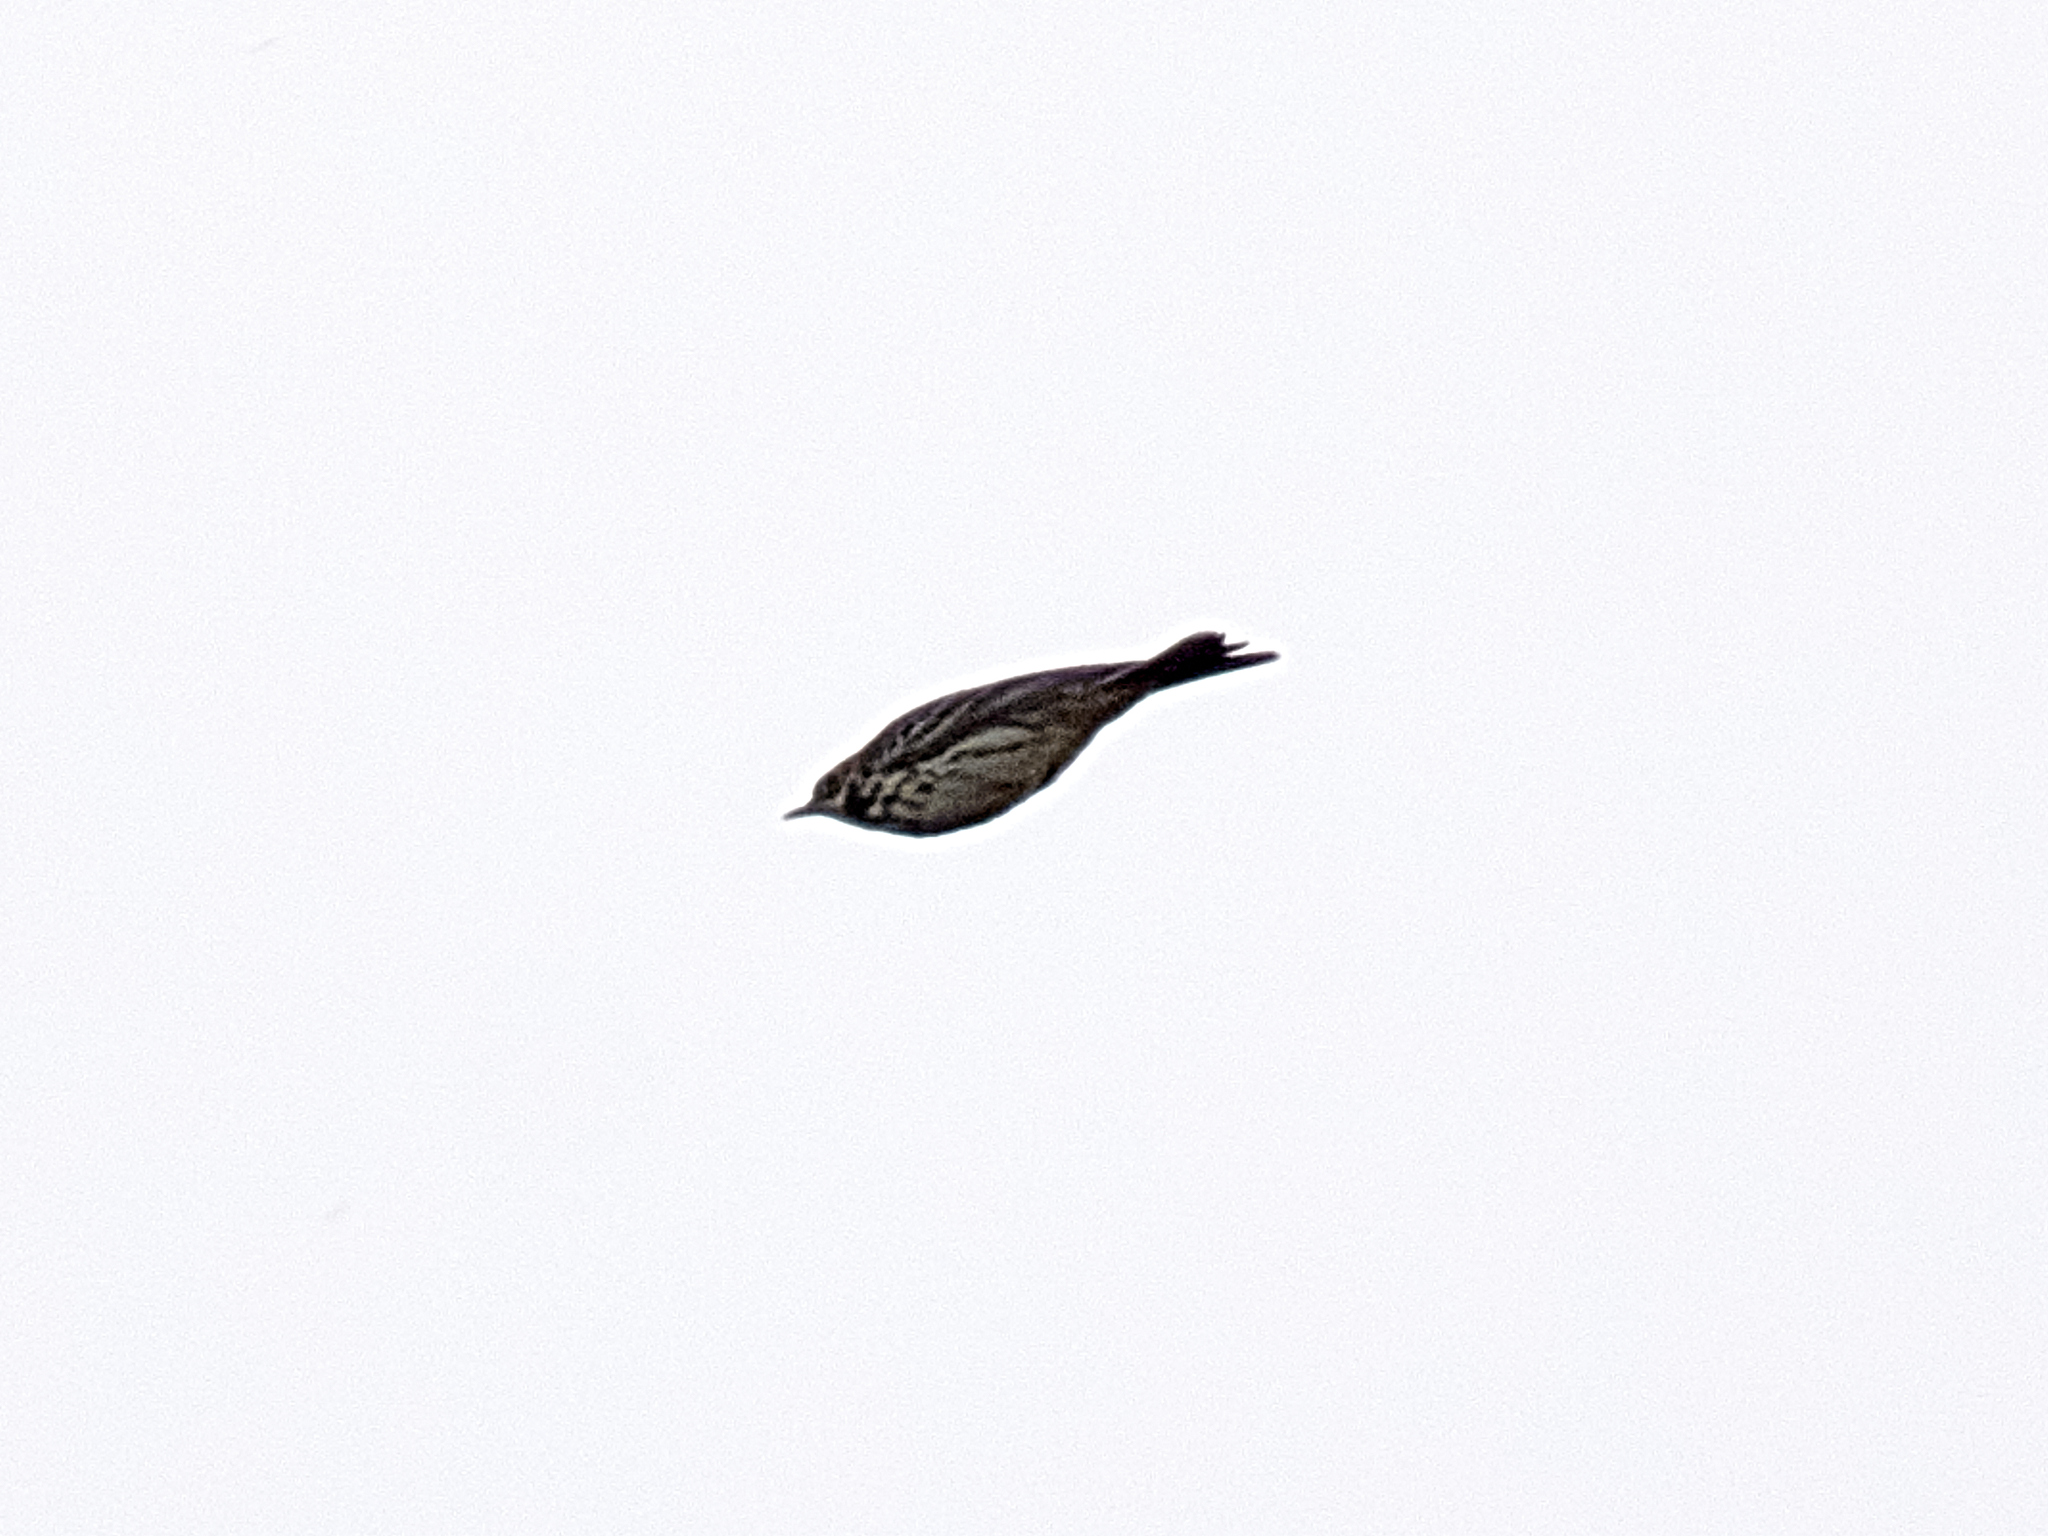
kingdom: Animalia
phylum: Chordata
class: Aves
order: Passeriformes
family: Motacillidae
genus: Anthus
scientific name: Anthus pratensis
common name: Meadow pipit
